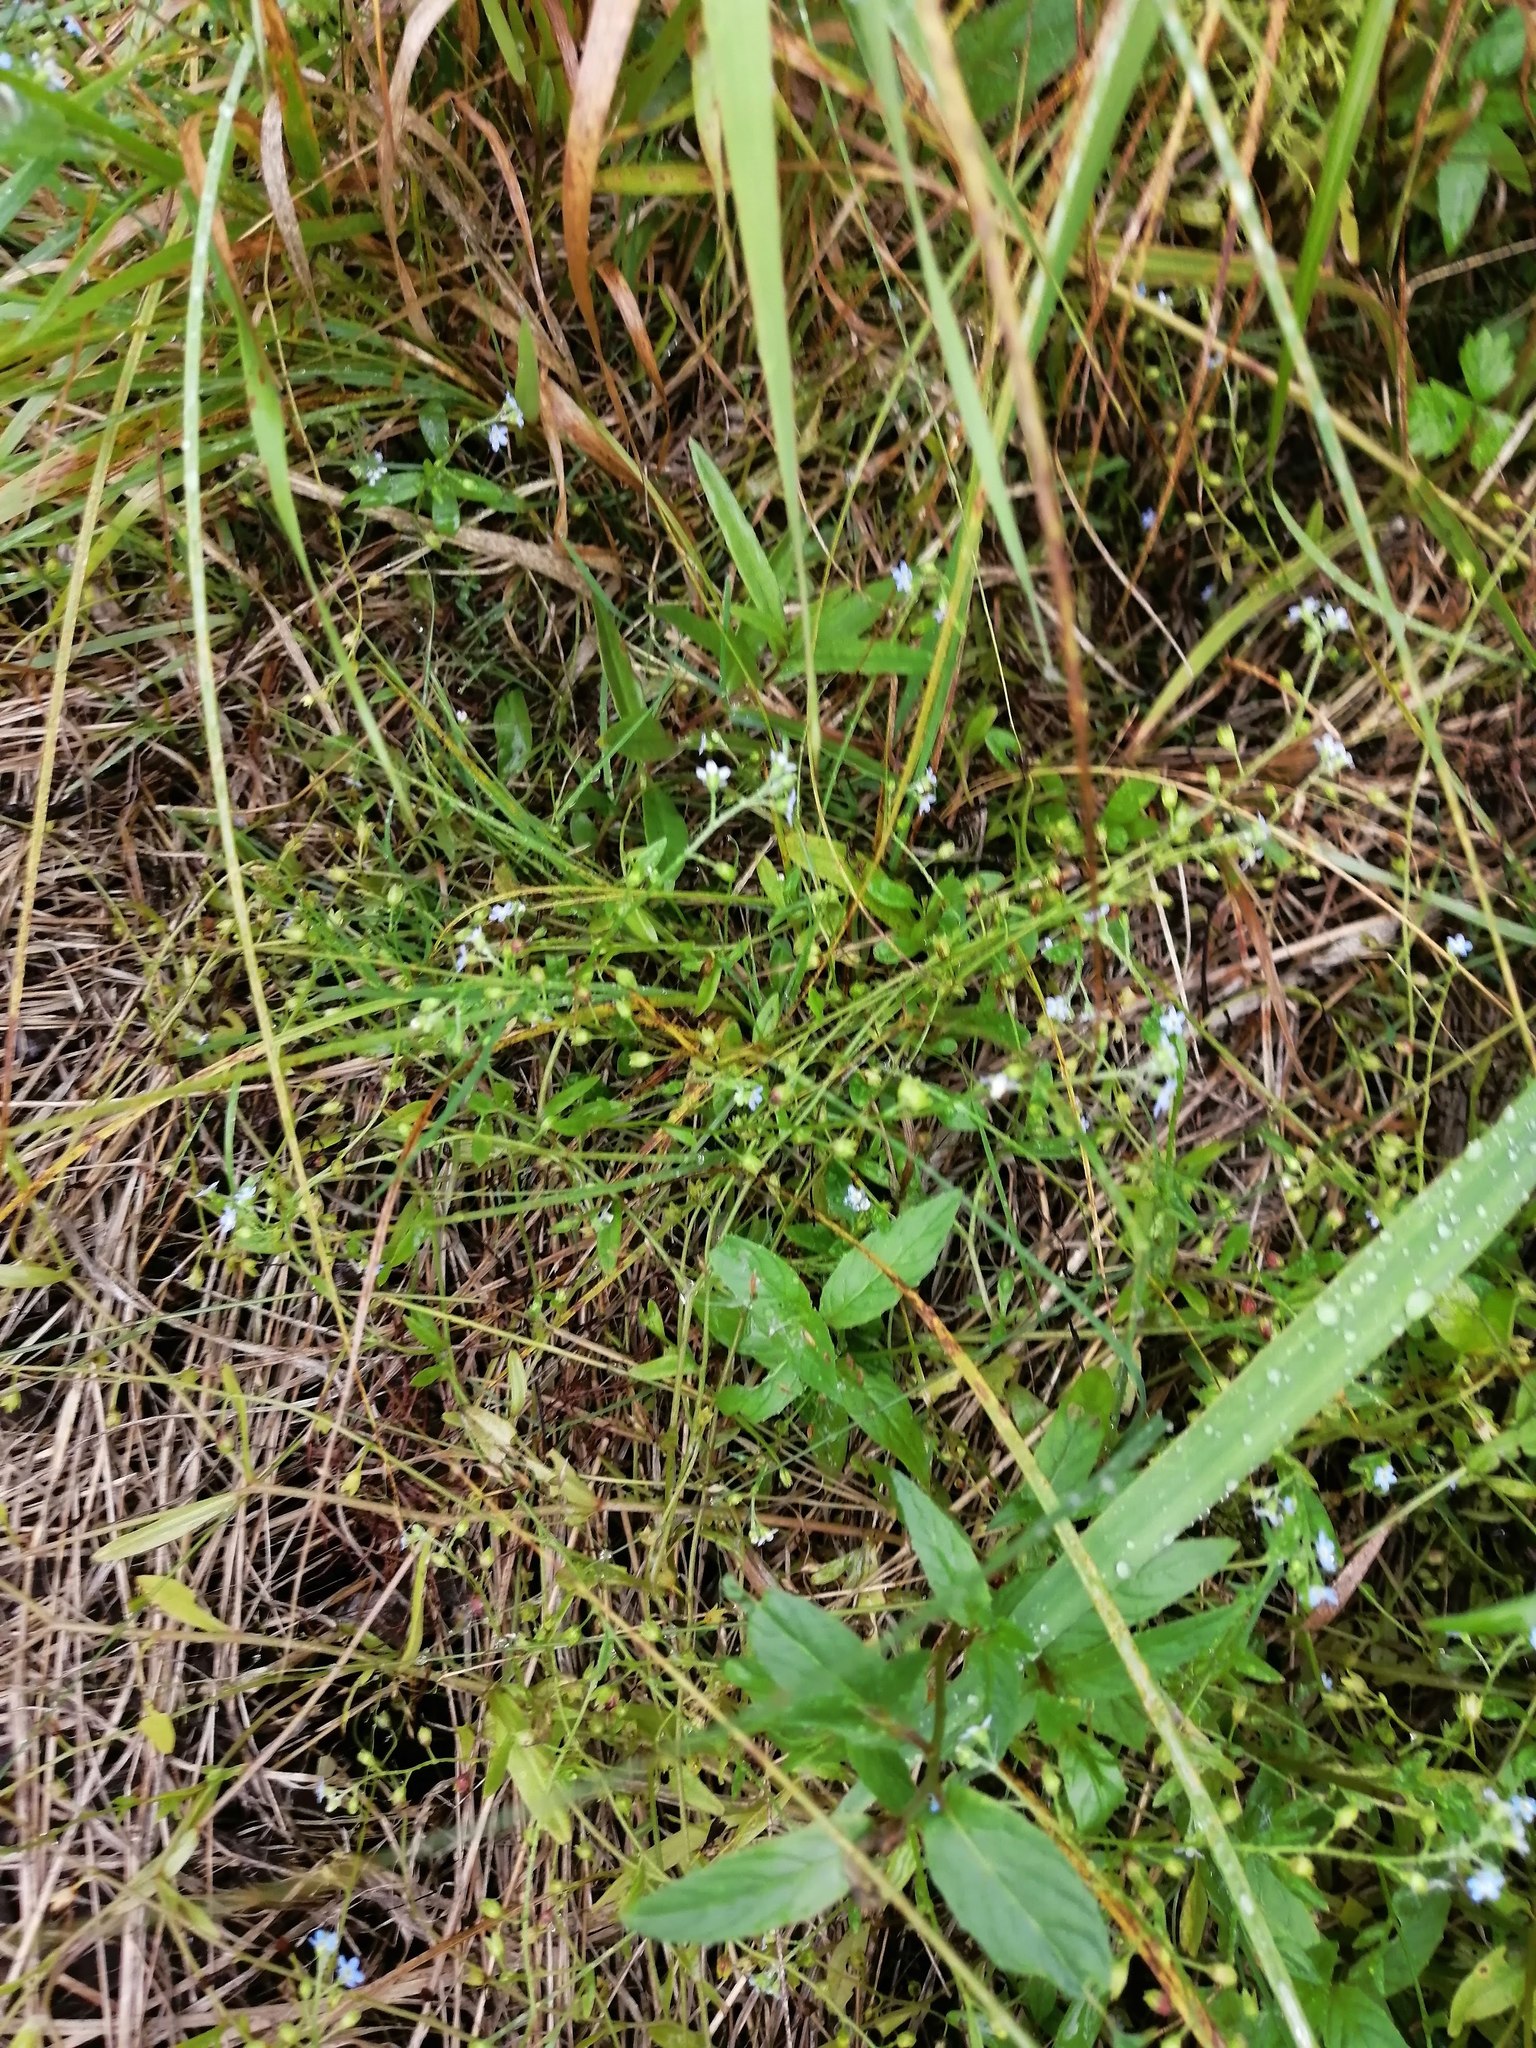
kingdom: Plantae
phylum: Tracheophyta
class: Magnoliopsida
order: Boraginales
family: Boraginaceae
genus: Myosotis
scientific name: Myosotis laxa
